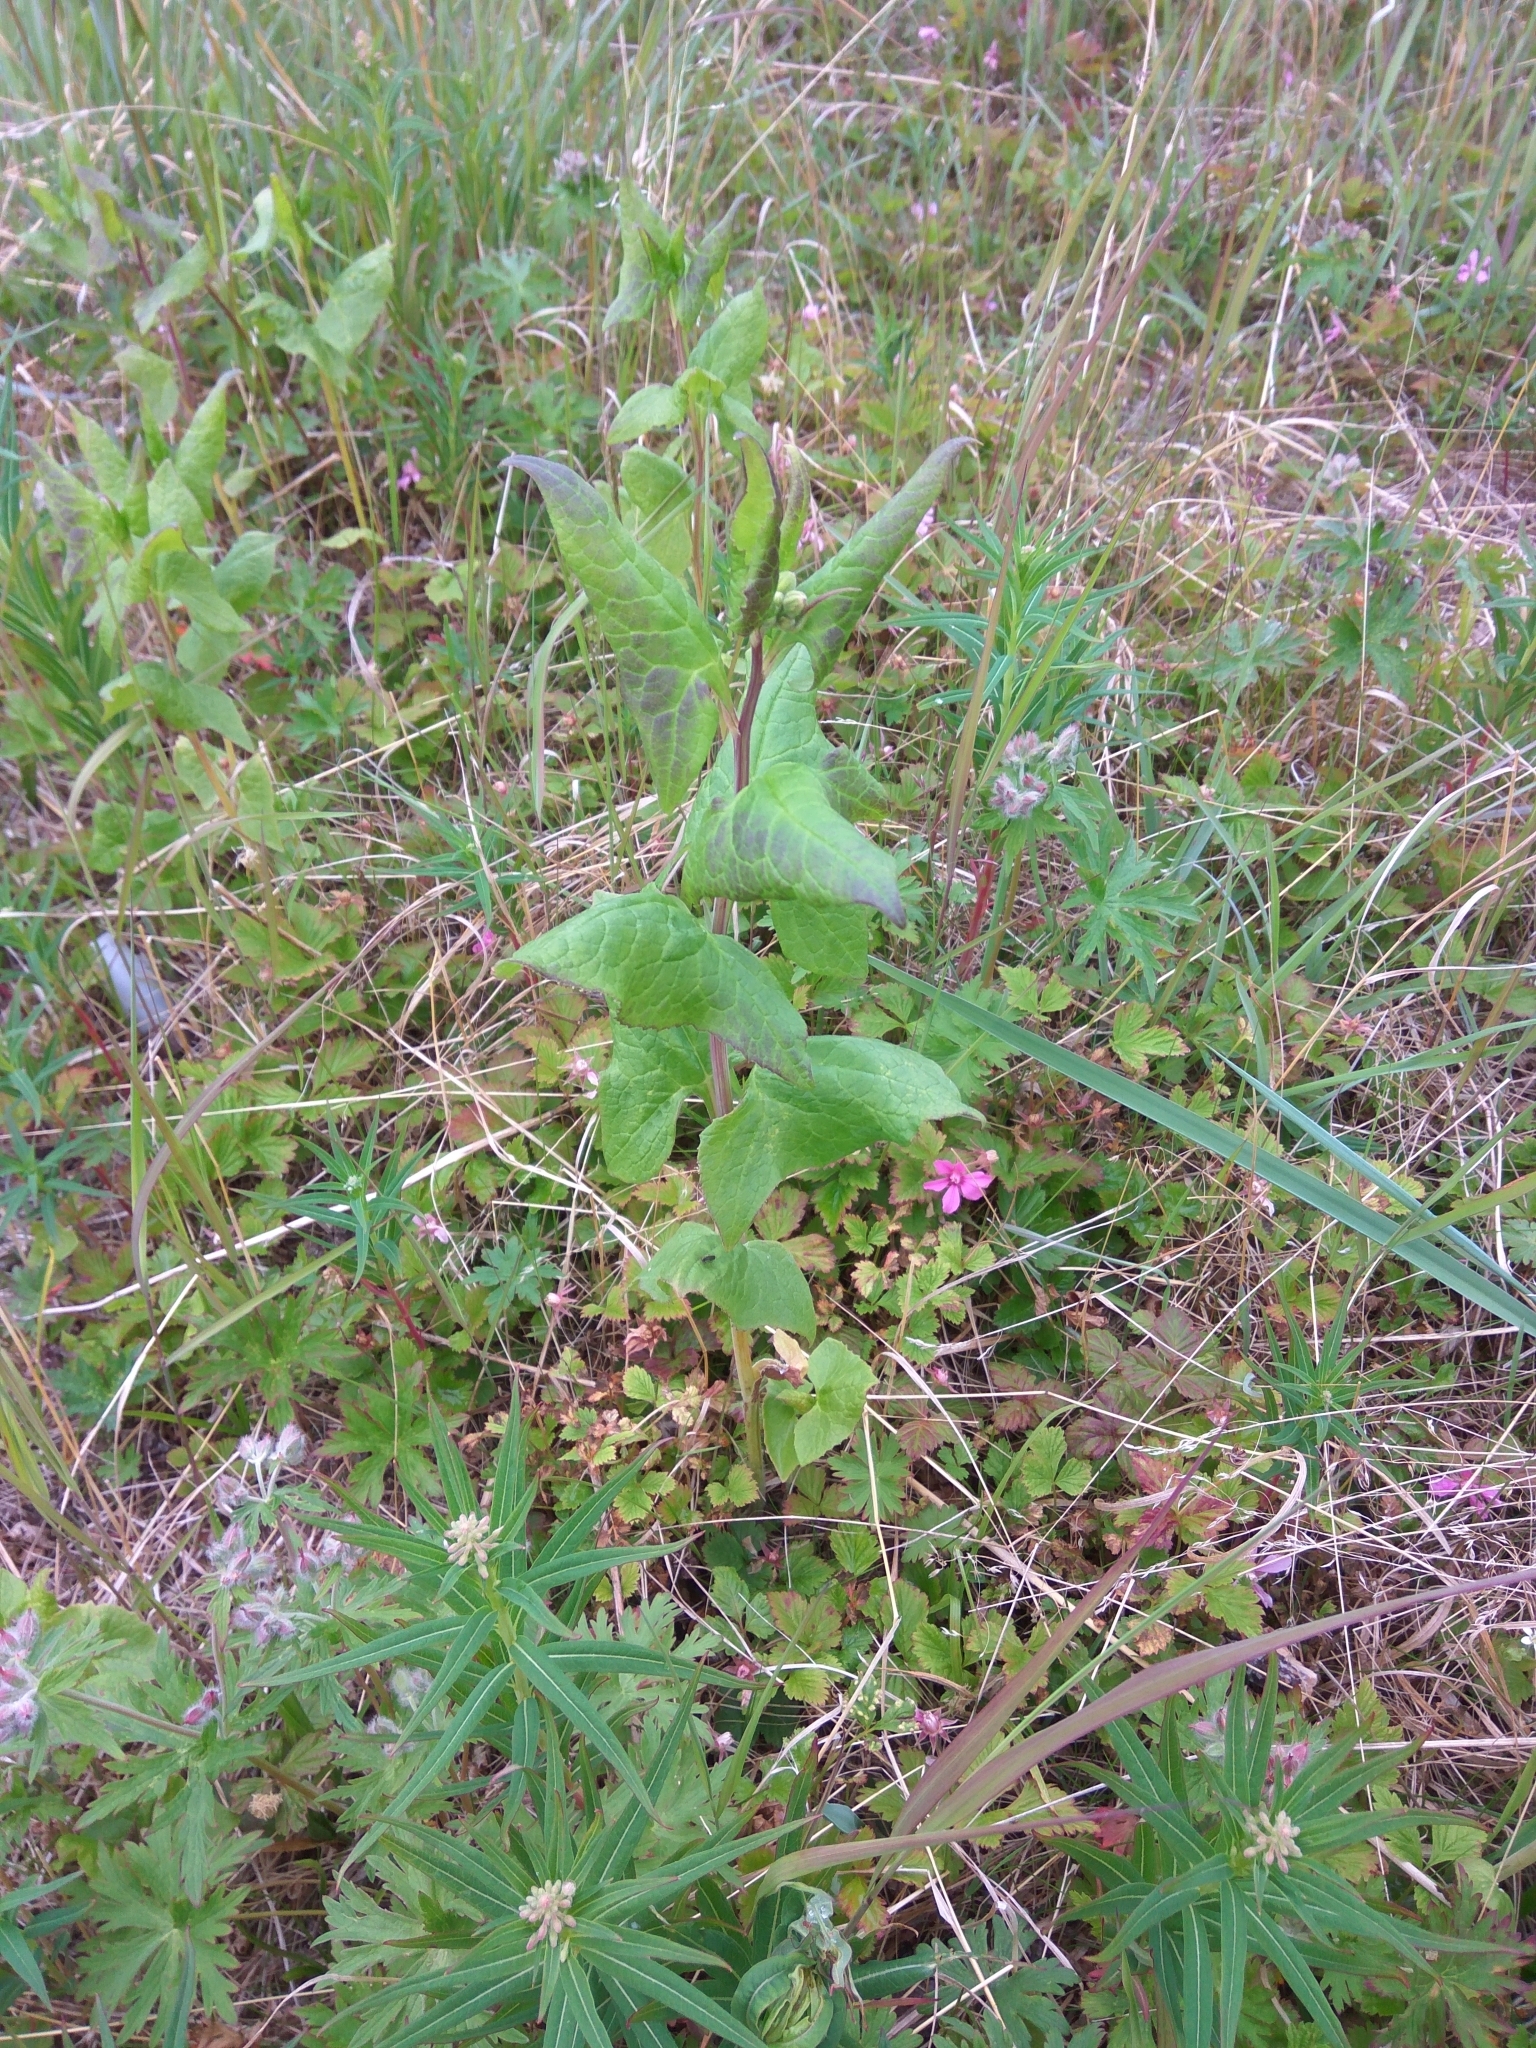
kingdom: Plantae
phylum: Tracheophyta
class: Magnoliopsida
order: Asterales
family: Asteraceae
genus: Parasenecio
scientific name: Parasenecio hastatus
